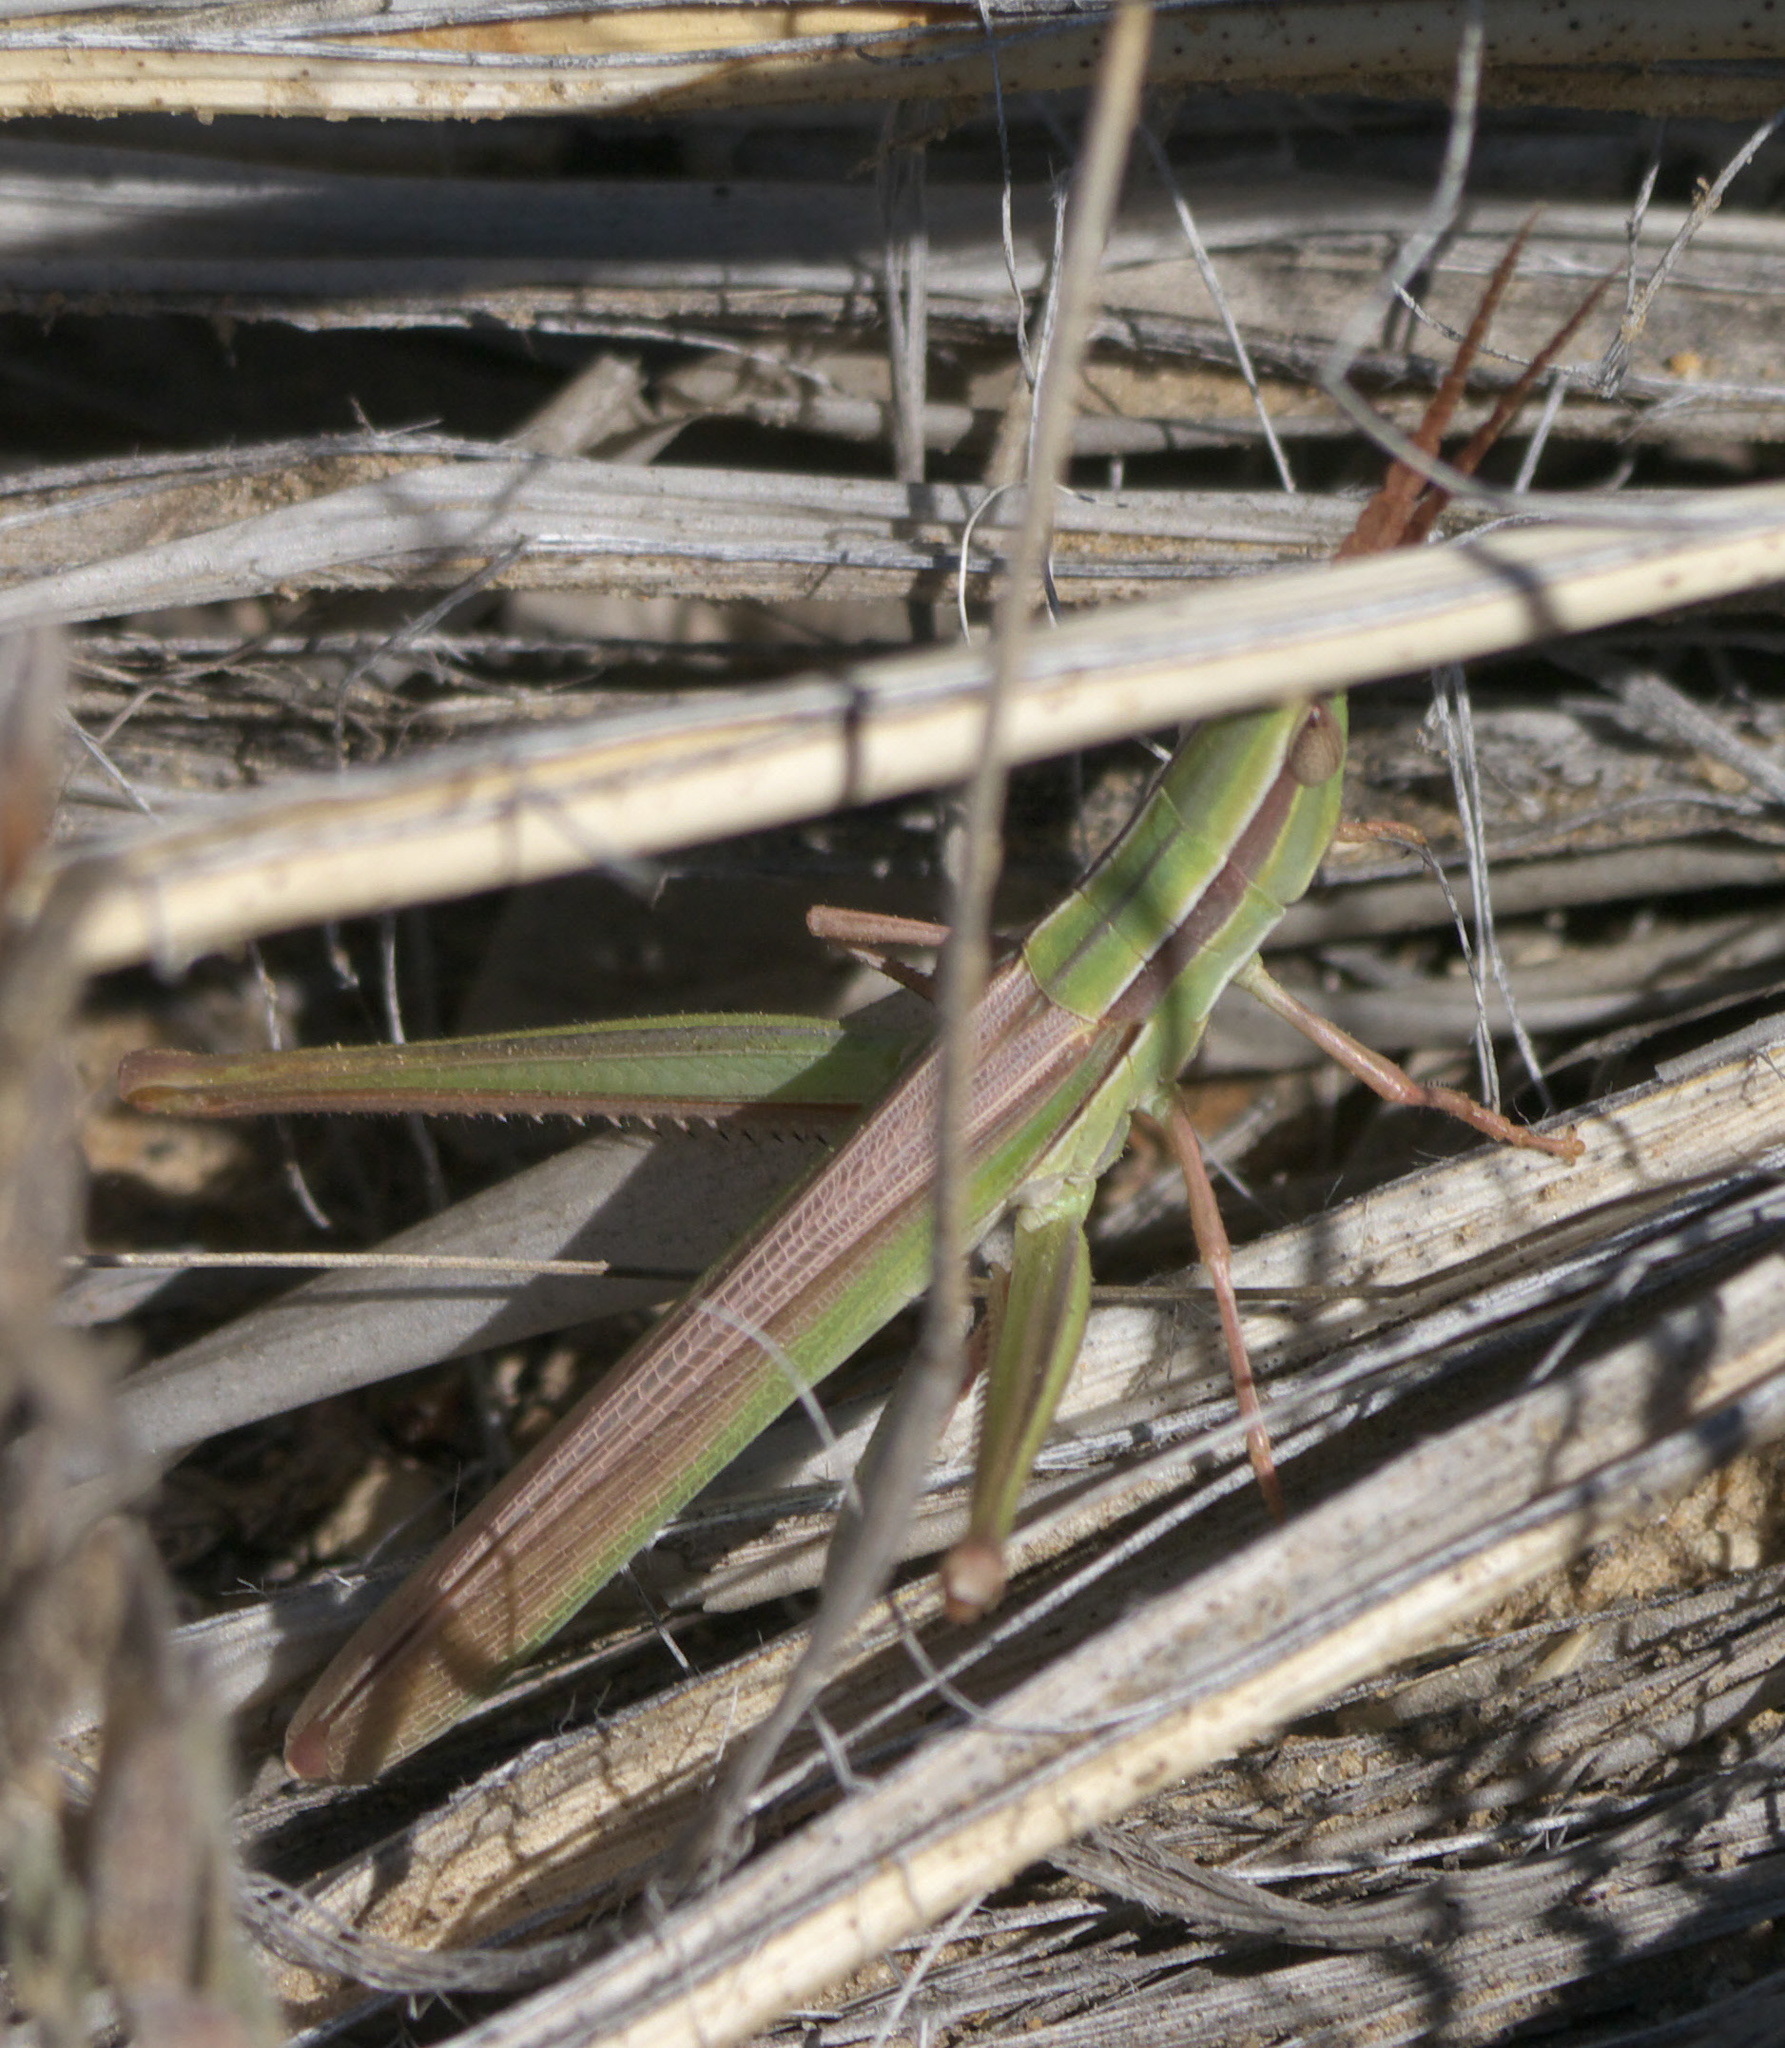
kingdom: Animalia
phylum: Arthropoda
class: Insecta
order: Orthoptera
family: Acrididae
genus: Mermiria
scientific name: Mermiria picta
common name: Lively mermiria grasshopper
